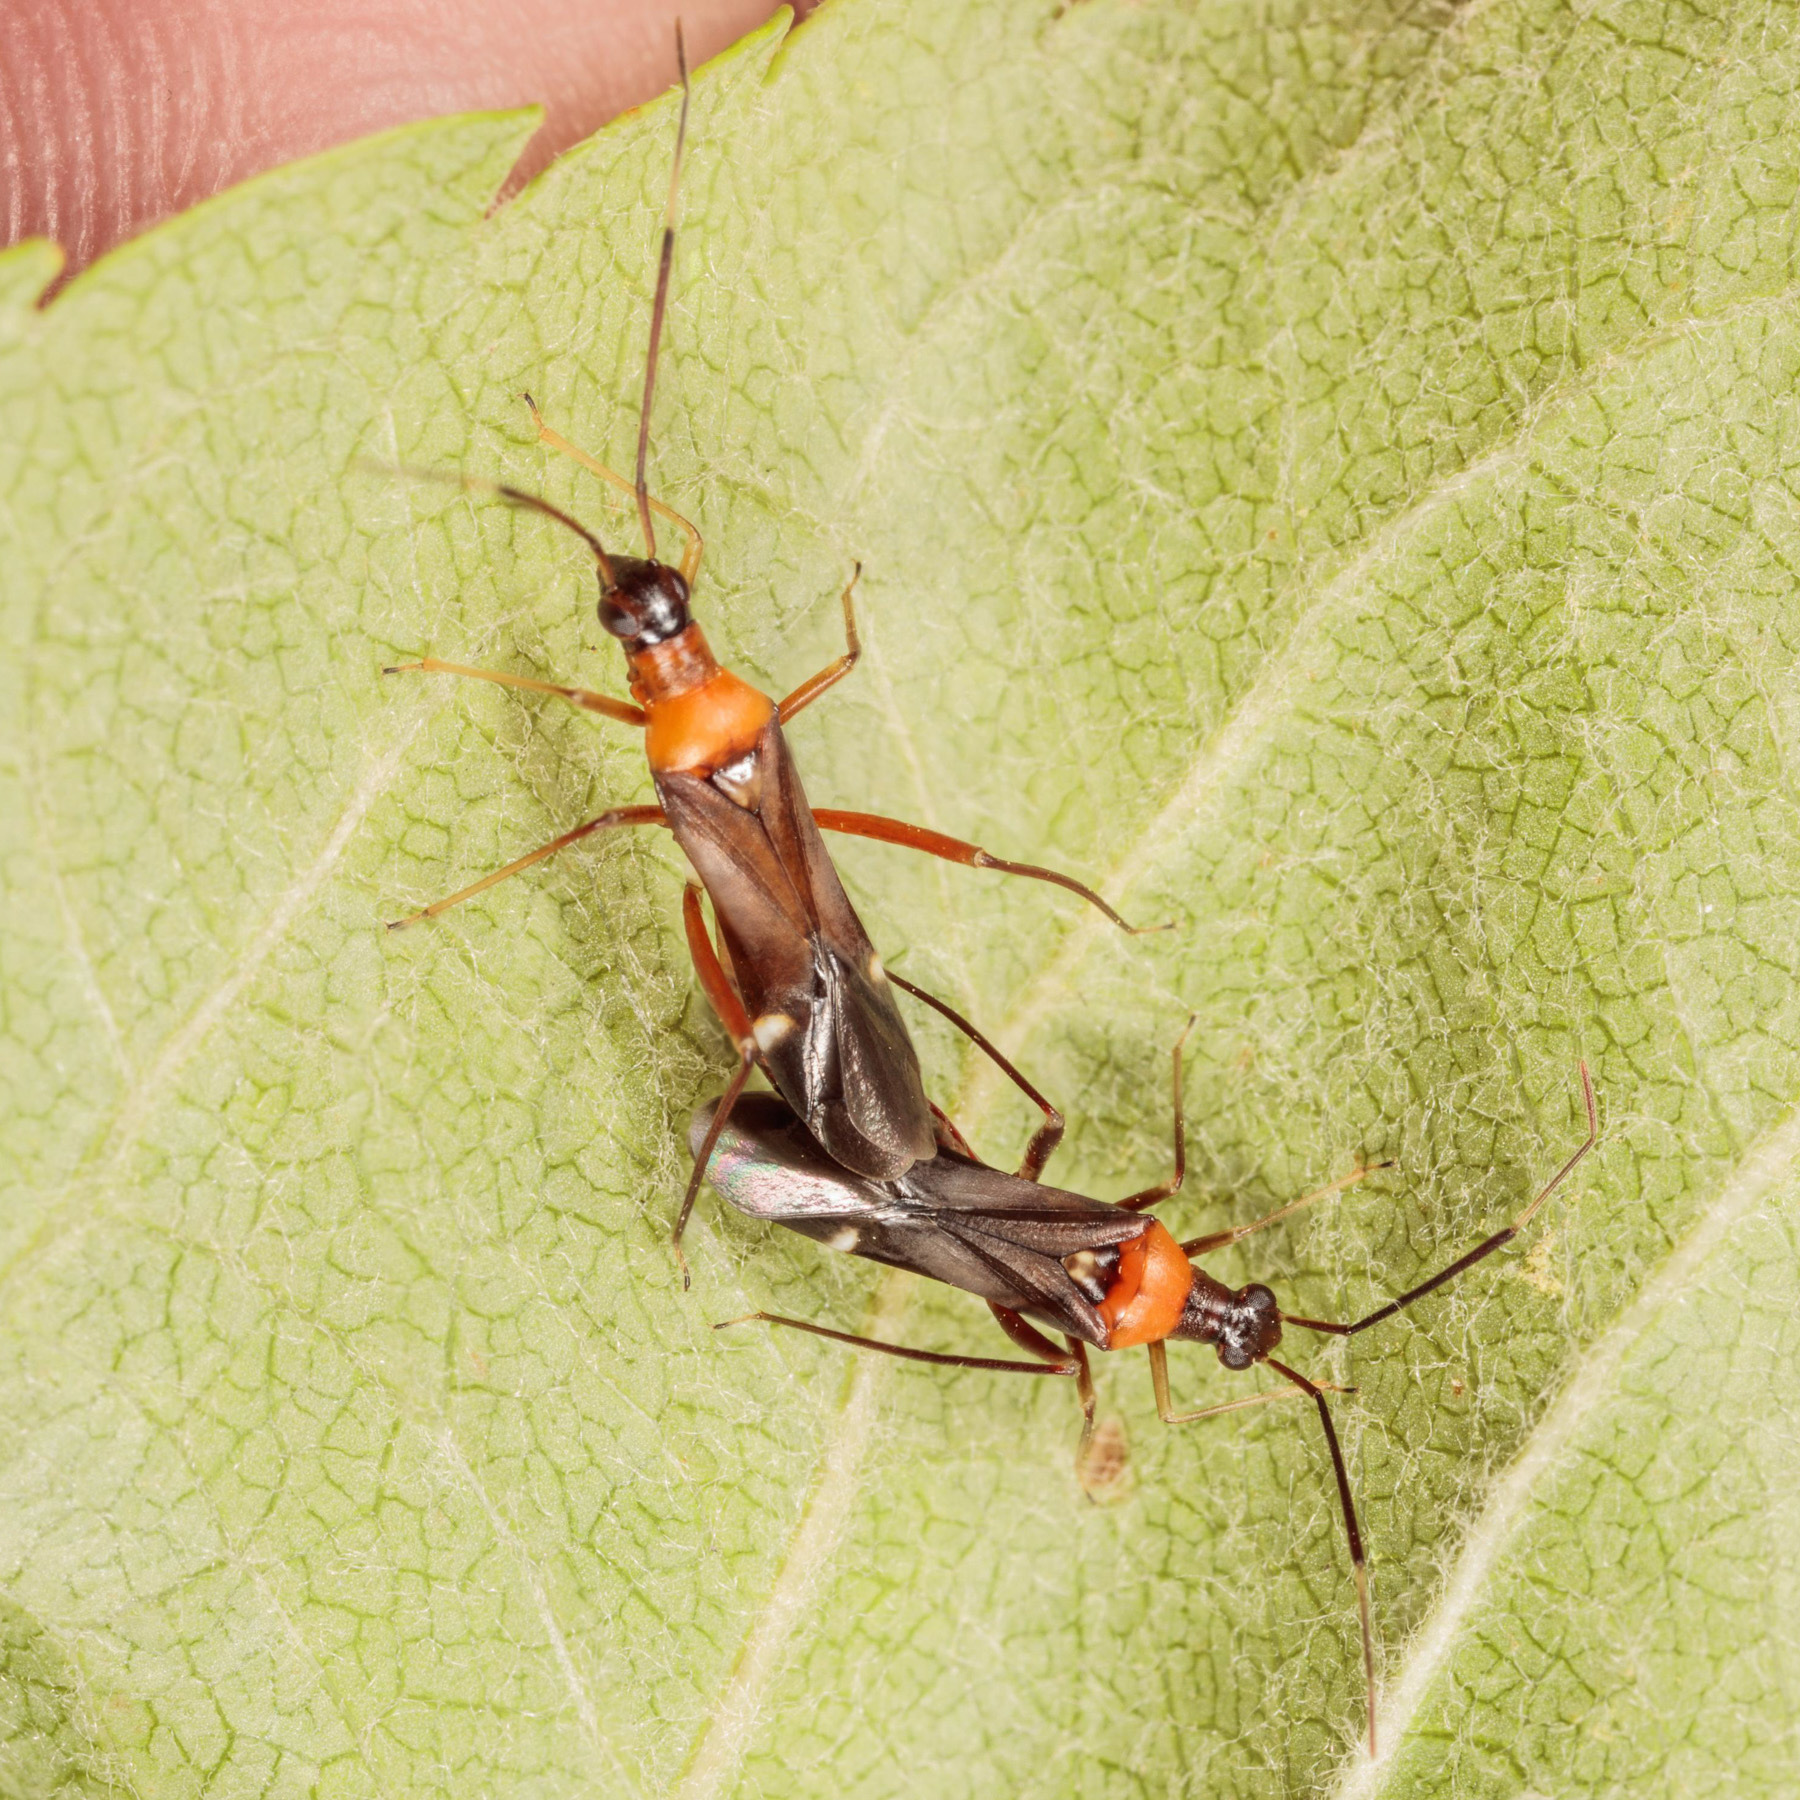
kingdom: Animalia
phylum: Arthropoda
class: Insecta
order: Hemiptera
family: Miridae
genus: Pseudoxenetus
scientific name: Pseudoxenetus regalis
